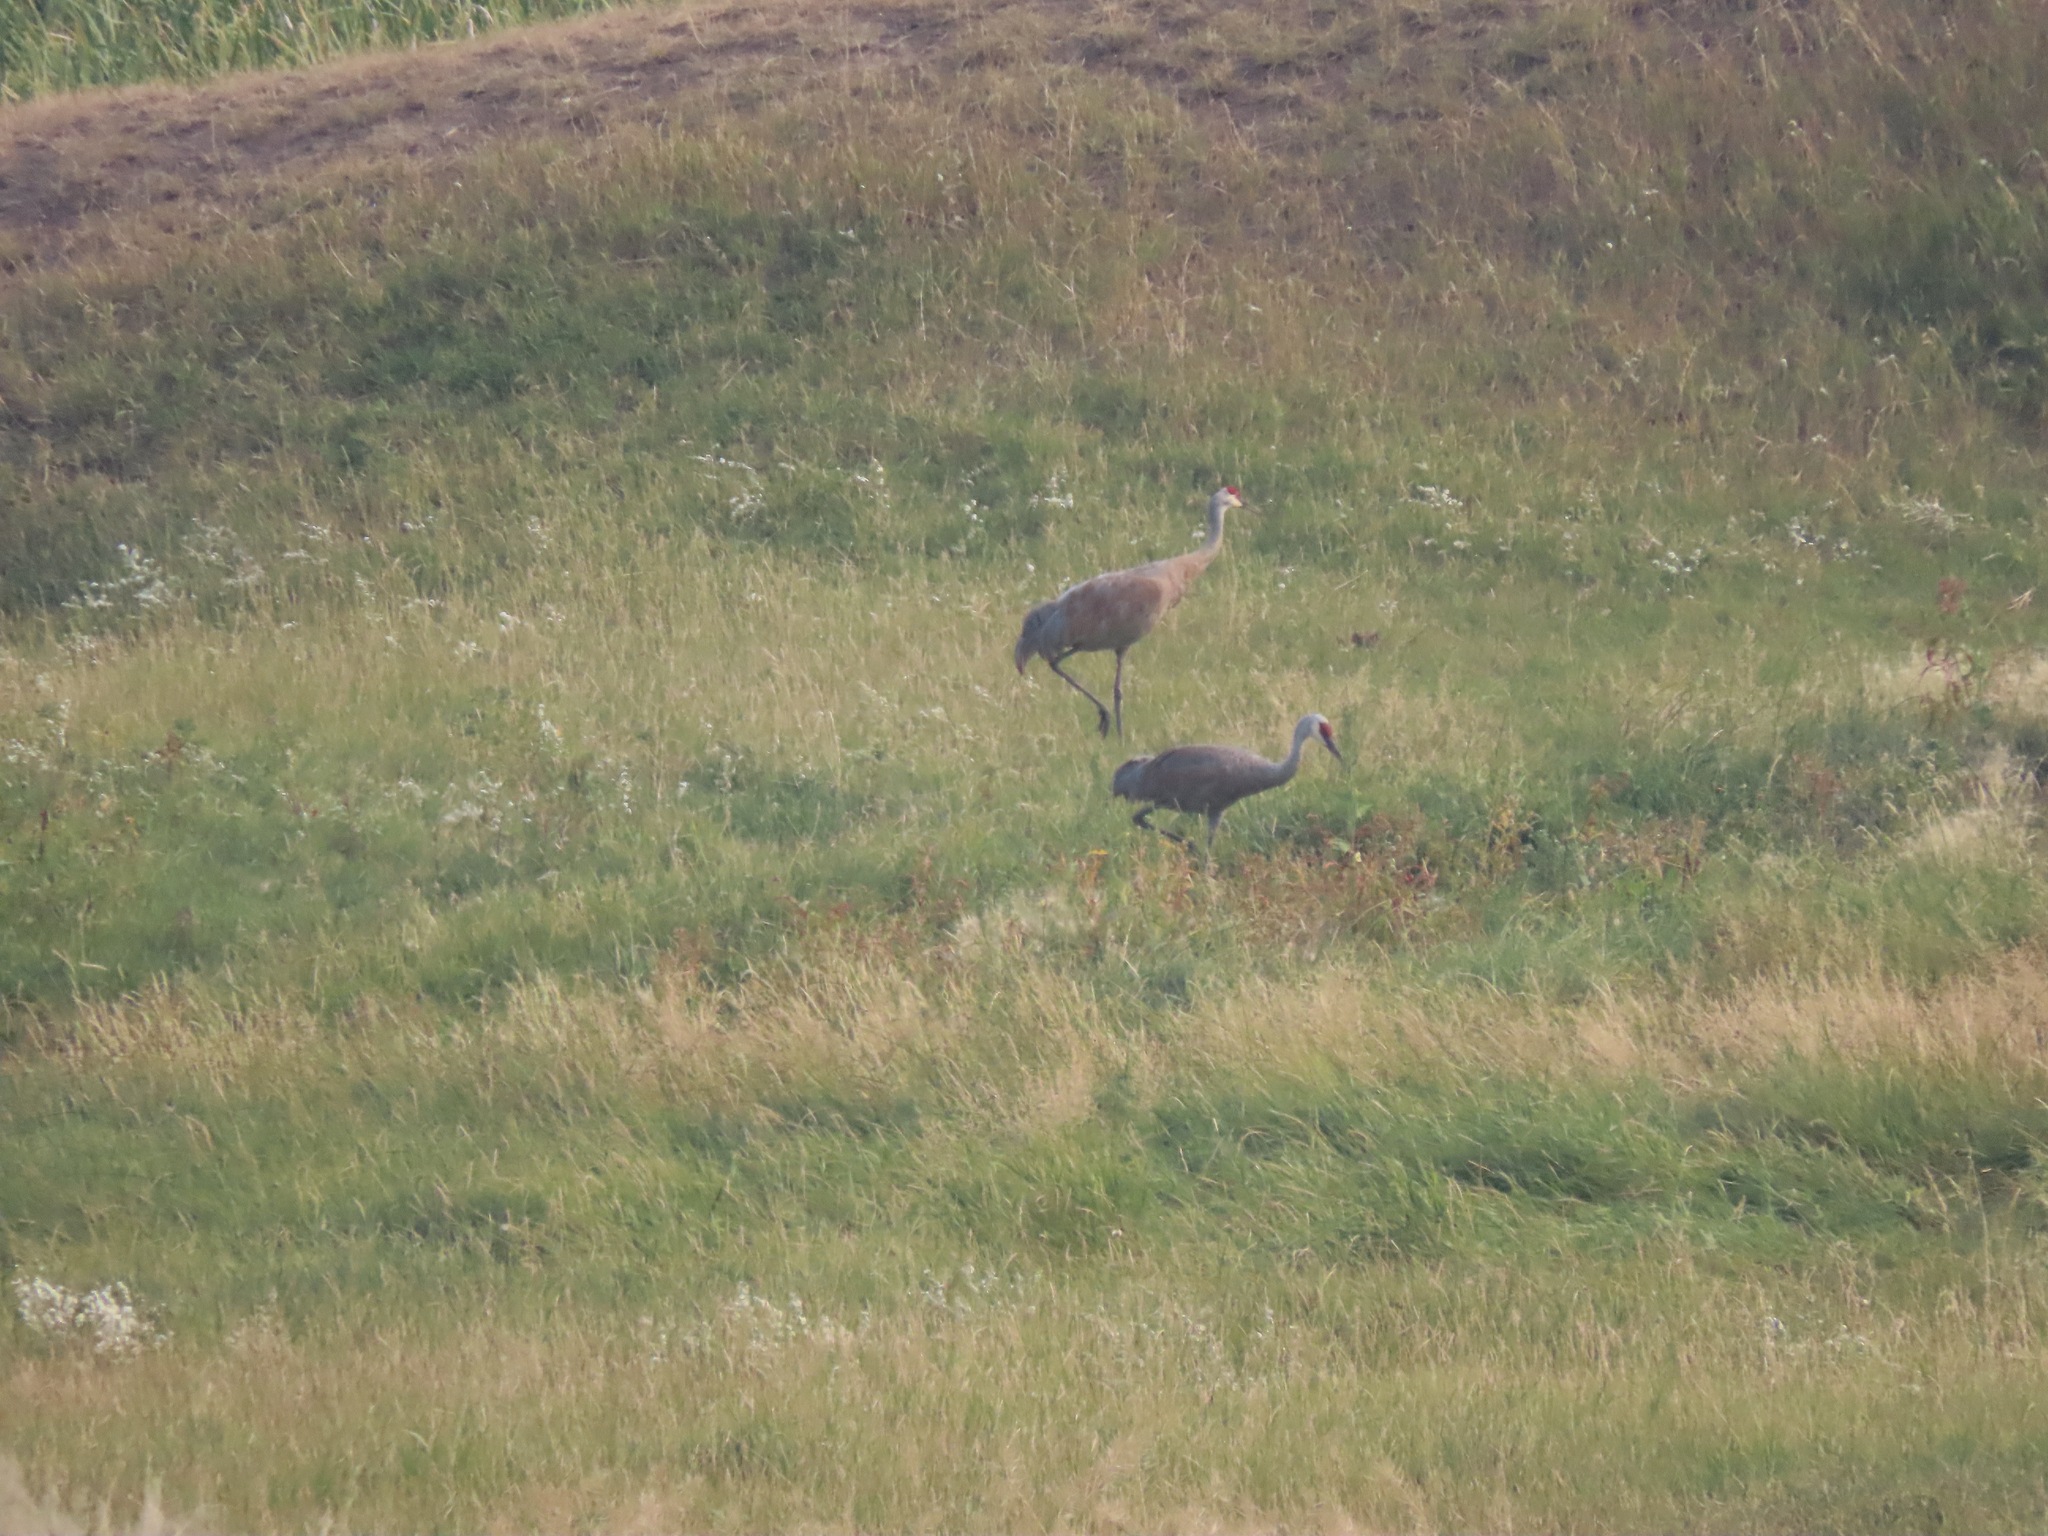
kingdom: Animalia
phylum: Chordata
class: Aves
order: Gruiformes
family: Gruidae
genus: Grus
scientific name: Grus canadensis
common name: Sandhill crane
